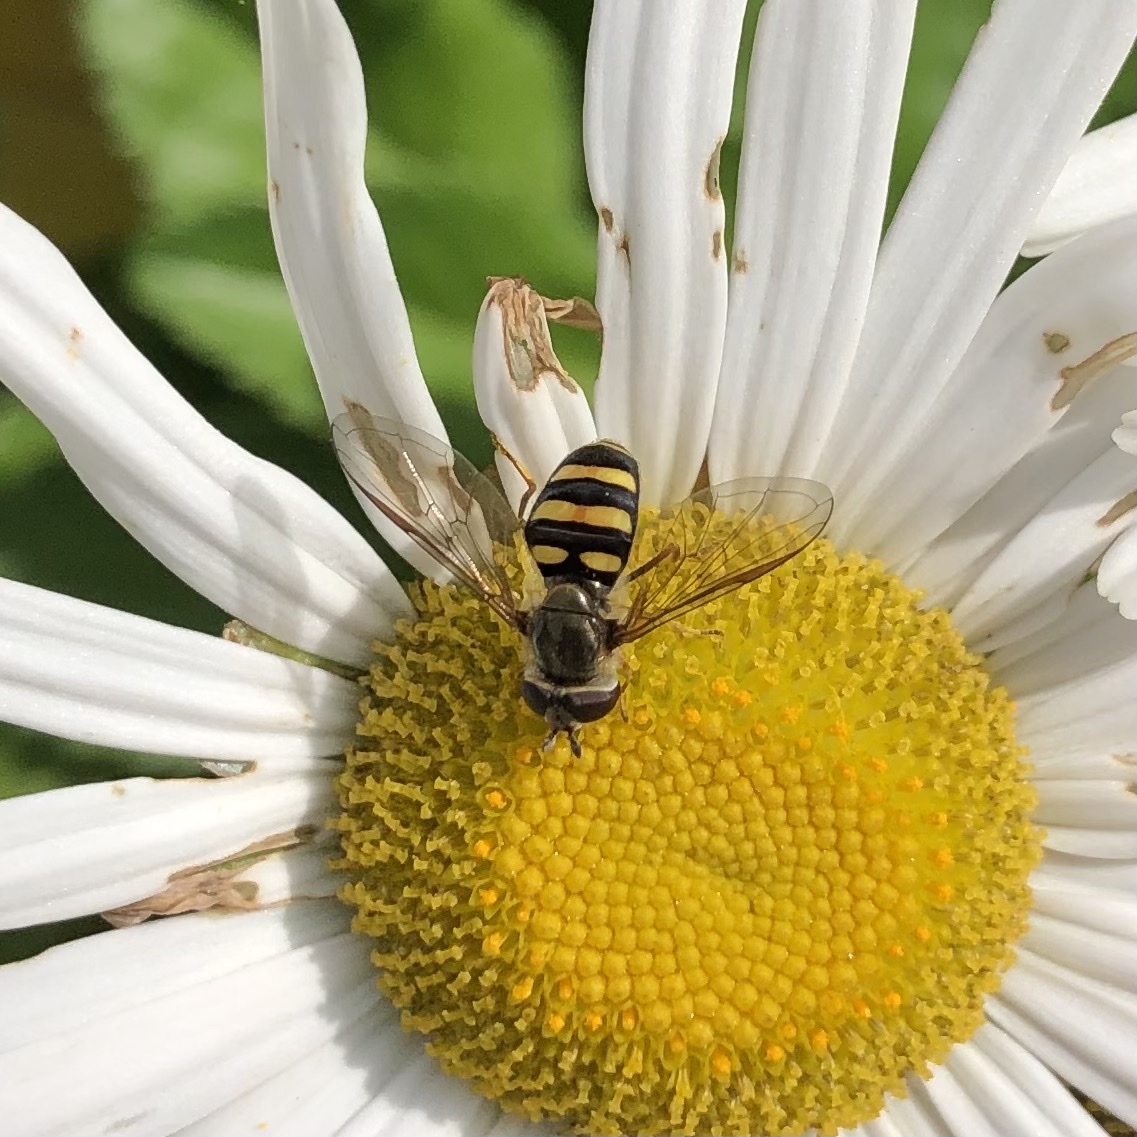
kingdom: Animalia
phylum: Arthropoda
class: Insecta
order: Diptera
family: Syrphidae
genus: Eupeodes
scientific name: Eupeodes
